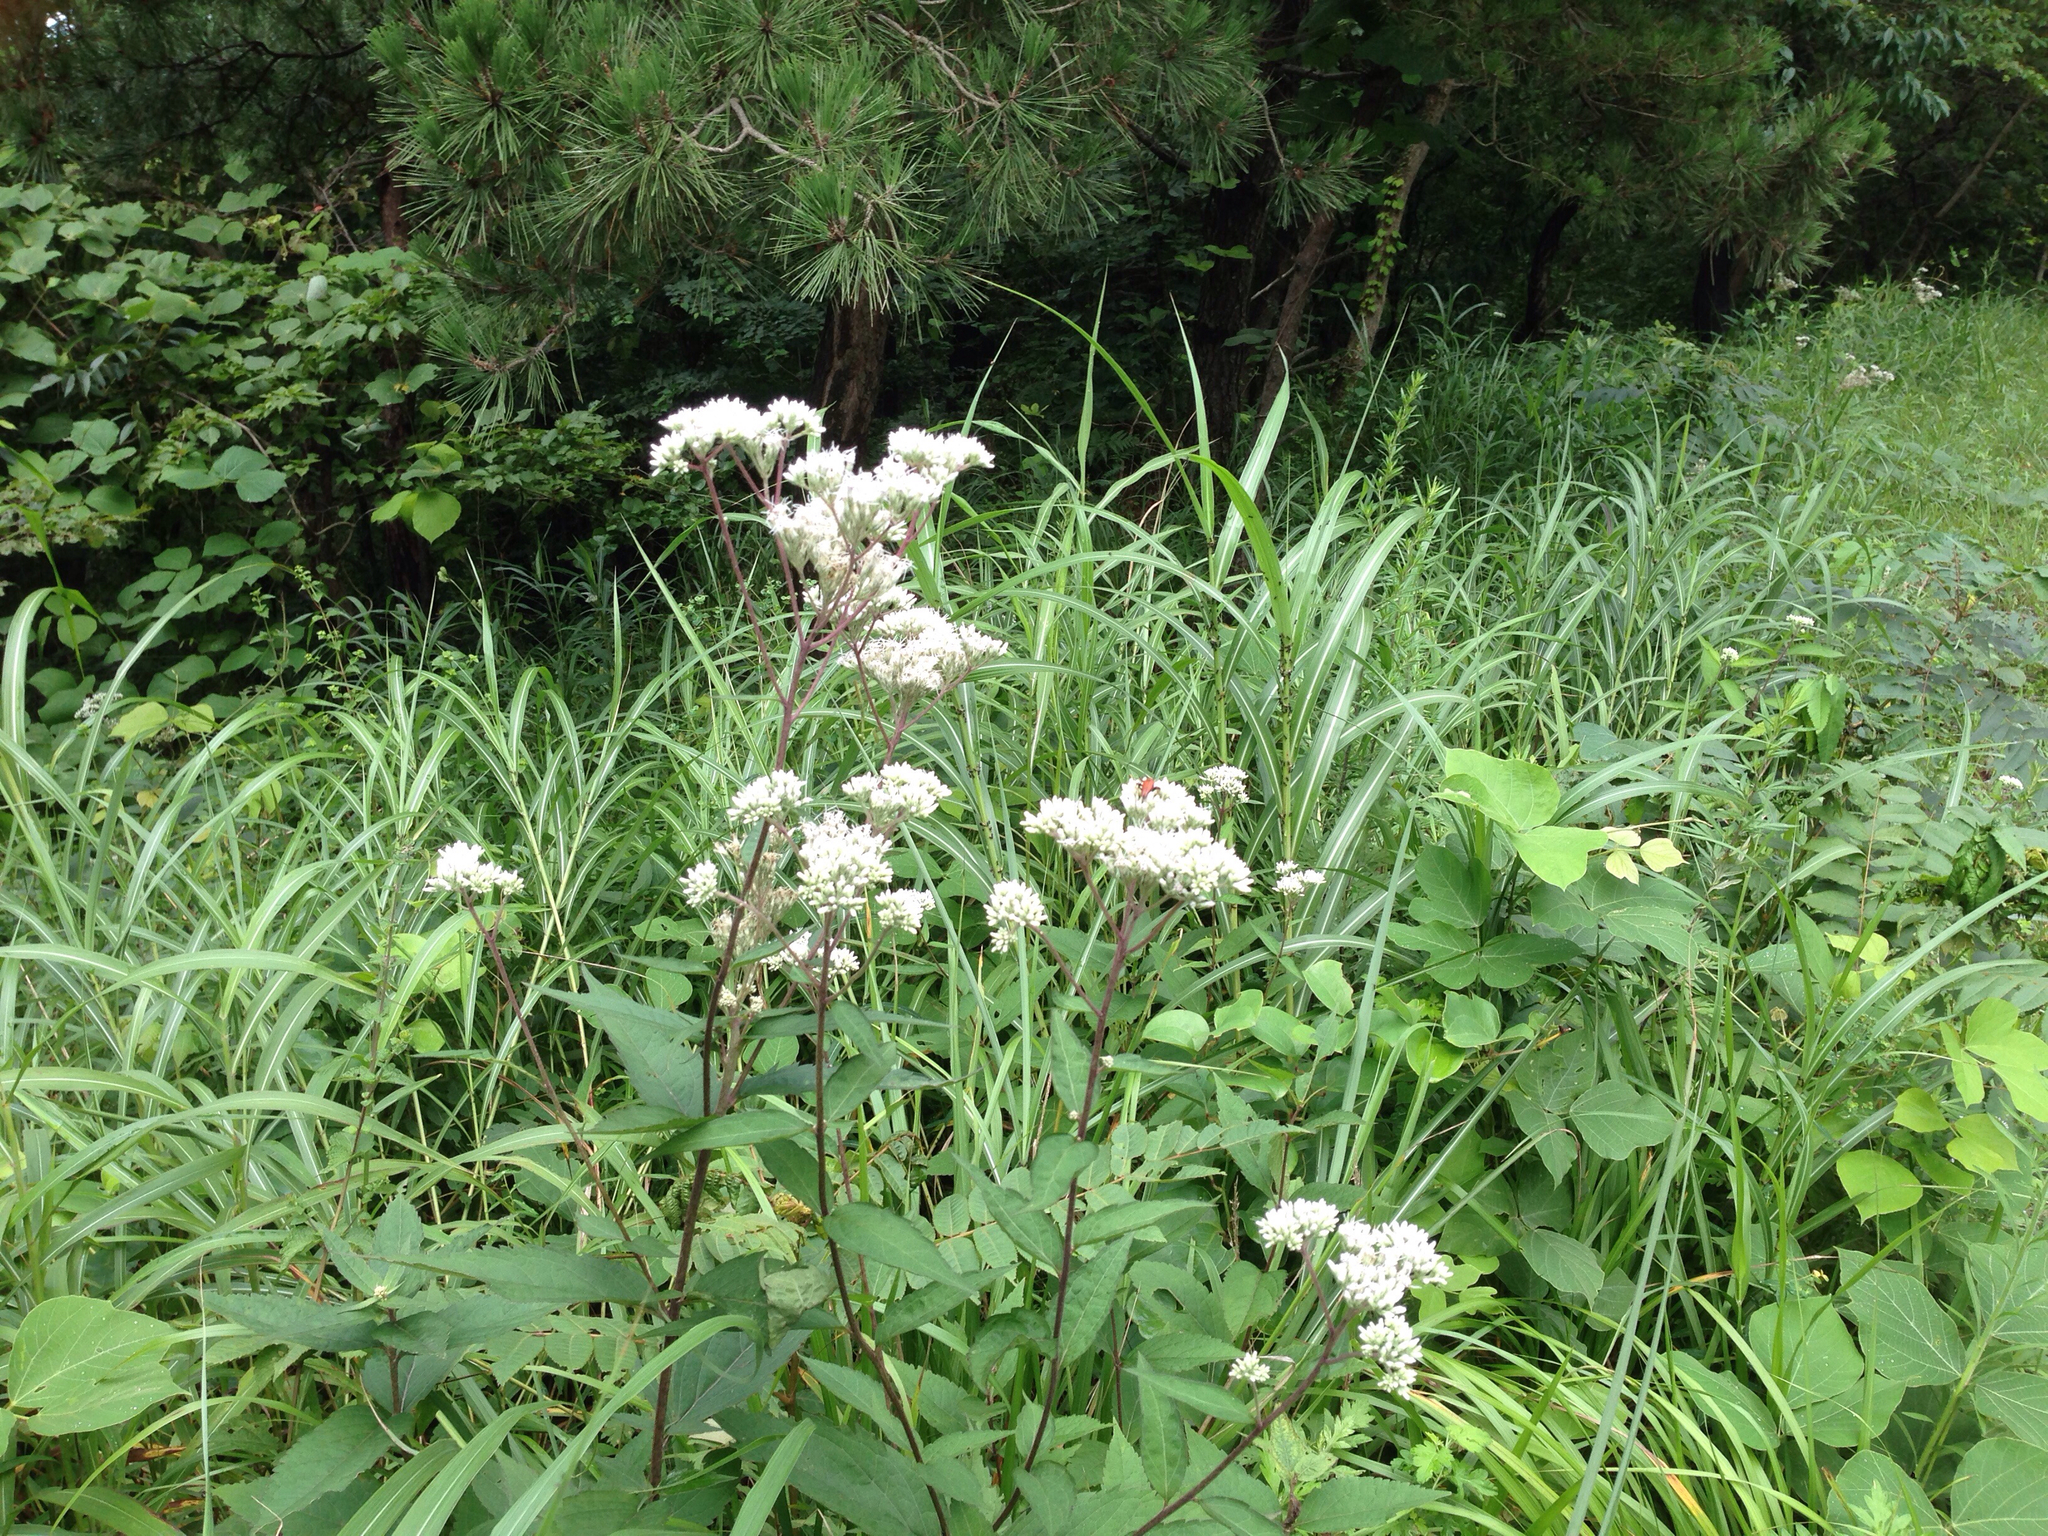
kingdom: Plantae
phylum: Tracheophyta
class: Magnoliopsida
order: Asterales
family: Asteraceae
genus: Eupatorium
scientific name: Eupatorium japonicum
